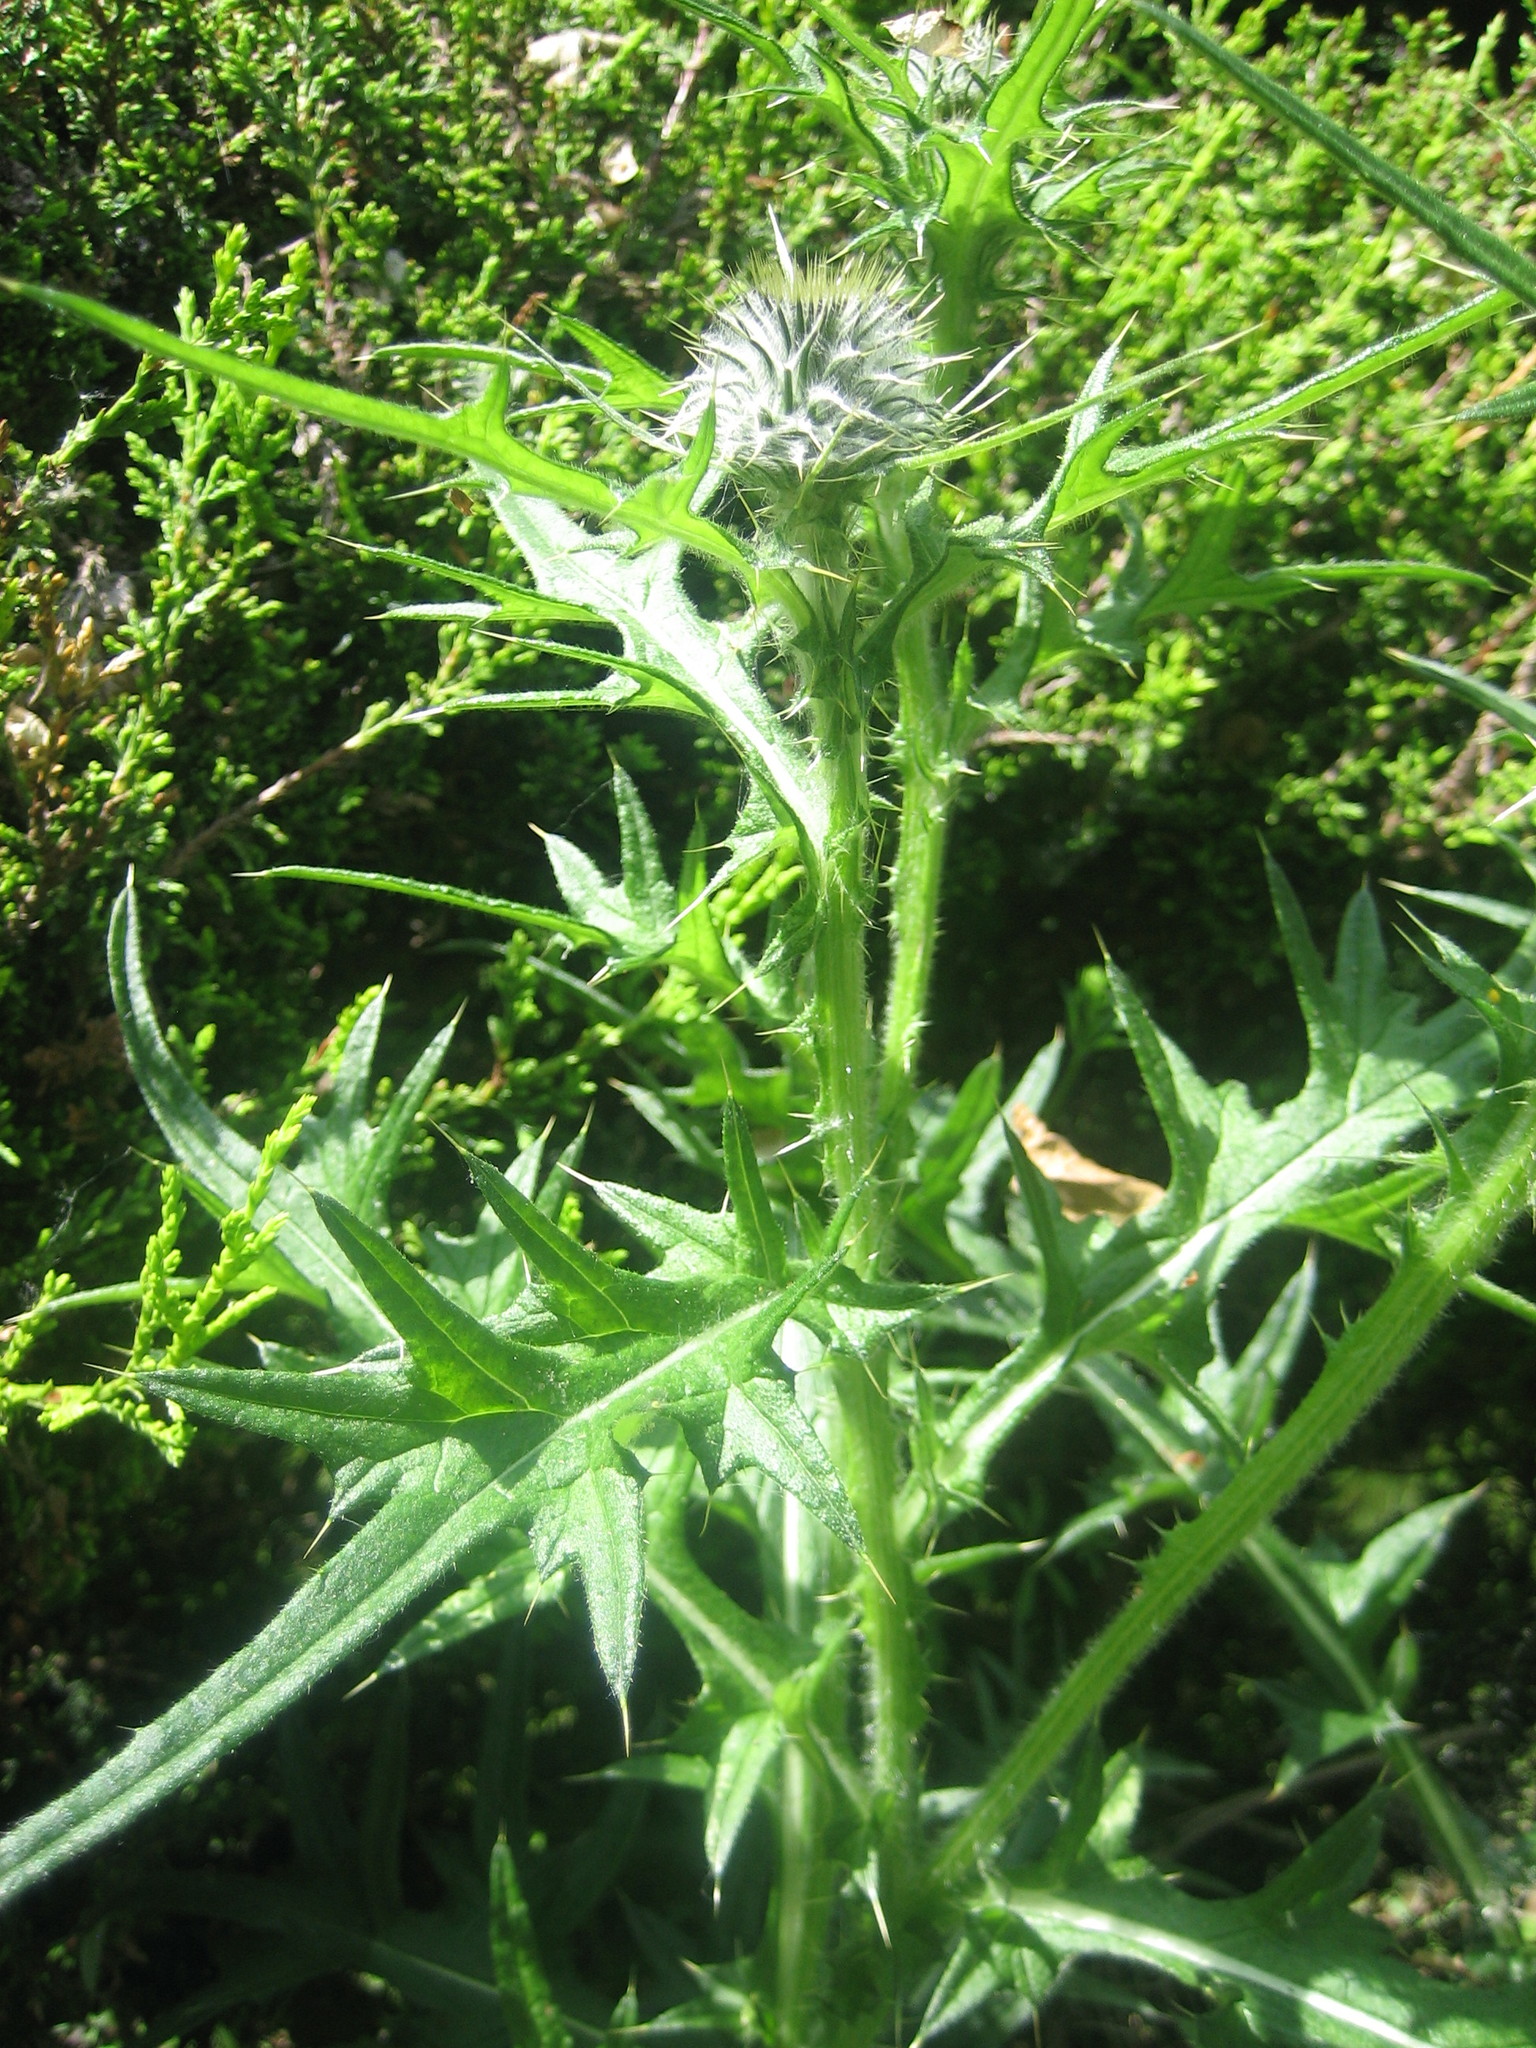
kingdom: Plantae
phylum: Tracheophyta
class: Magnoliopsida
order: Asterales
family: Asteraceae
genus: Cirsium
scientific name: Cirsium vulgare
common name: Bull thistle
